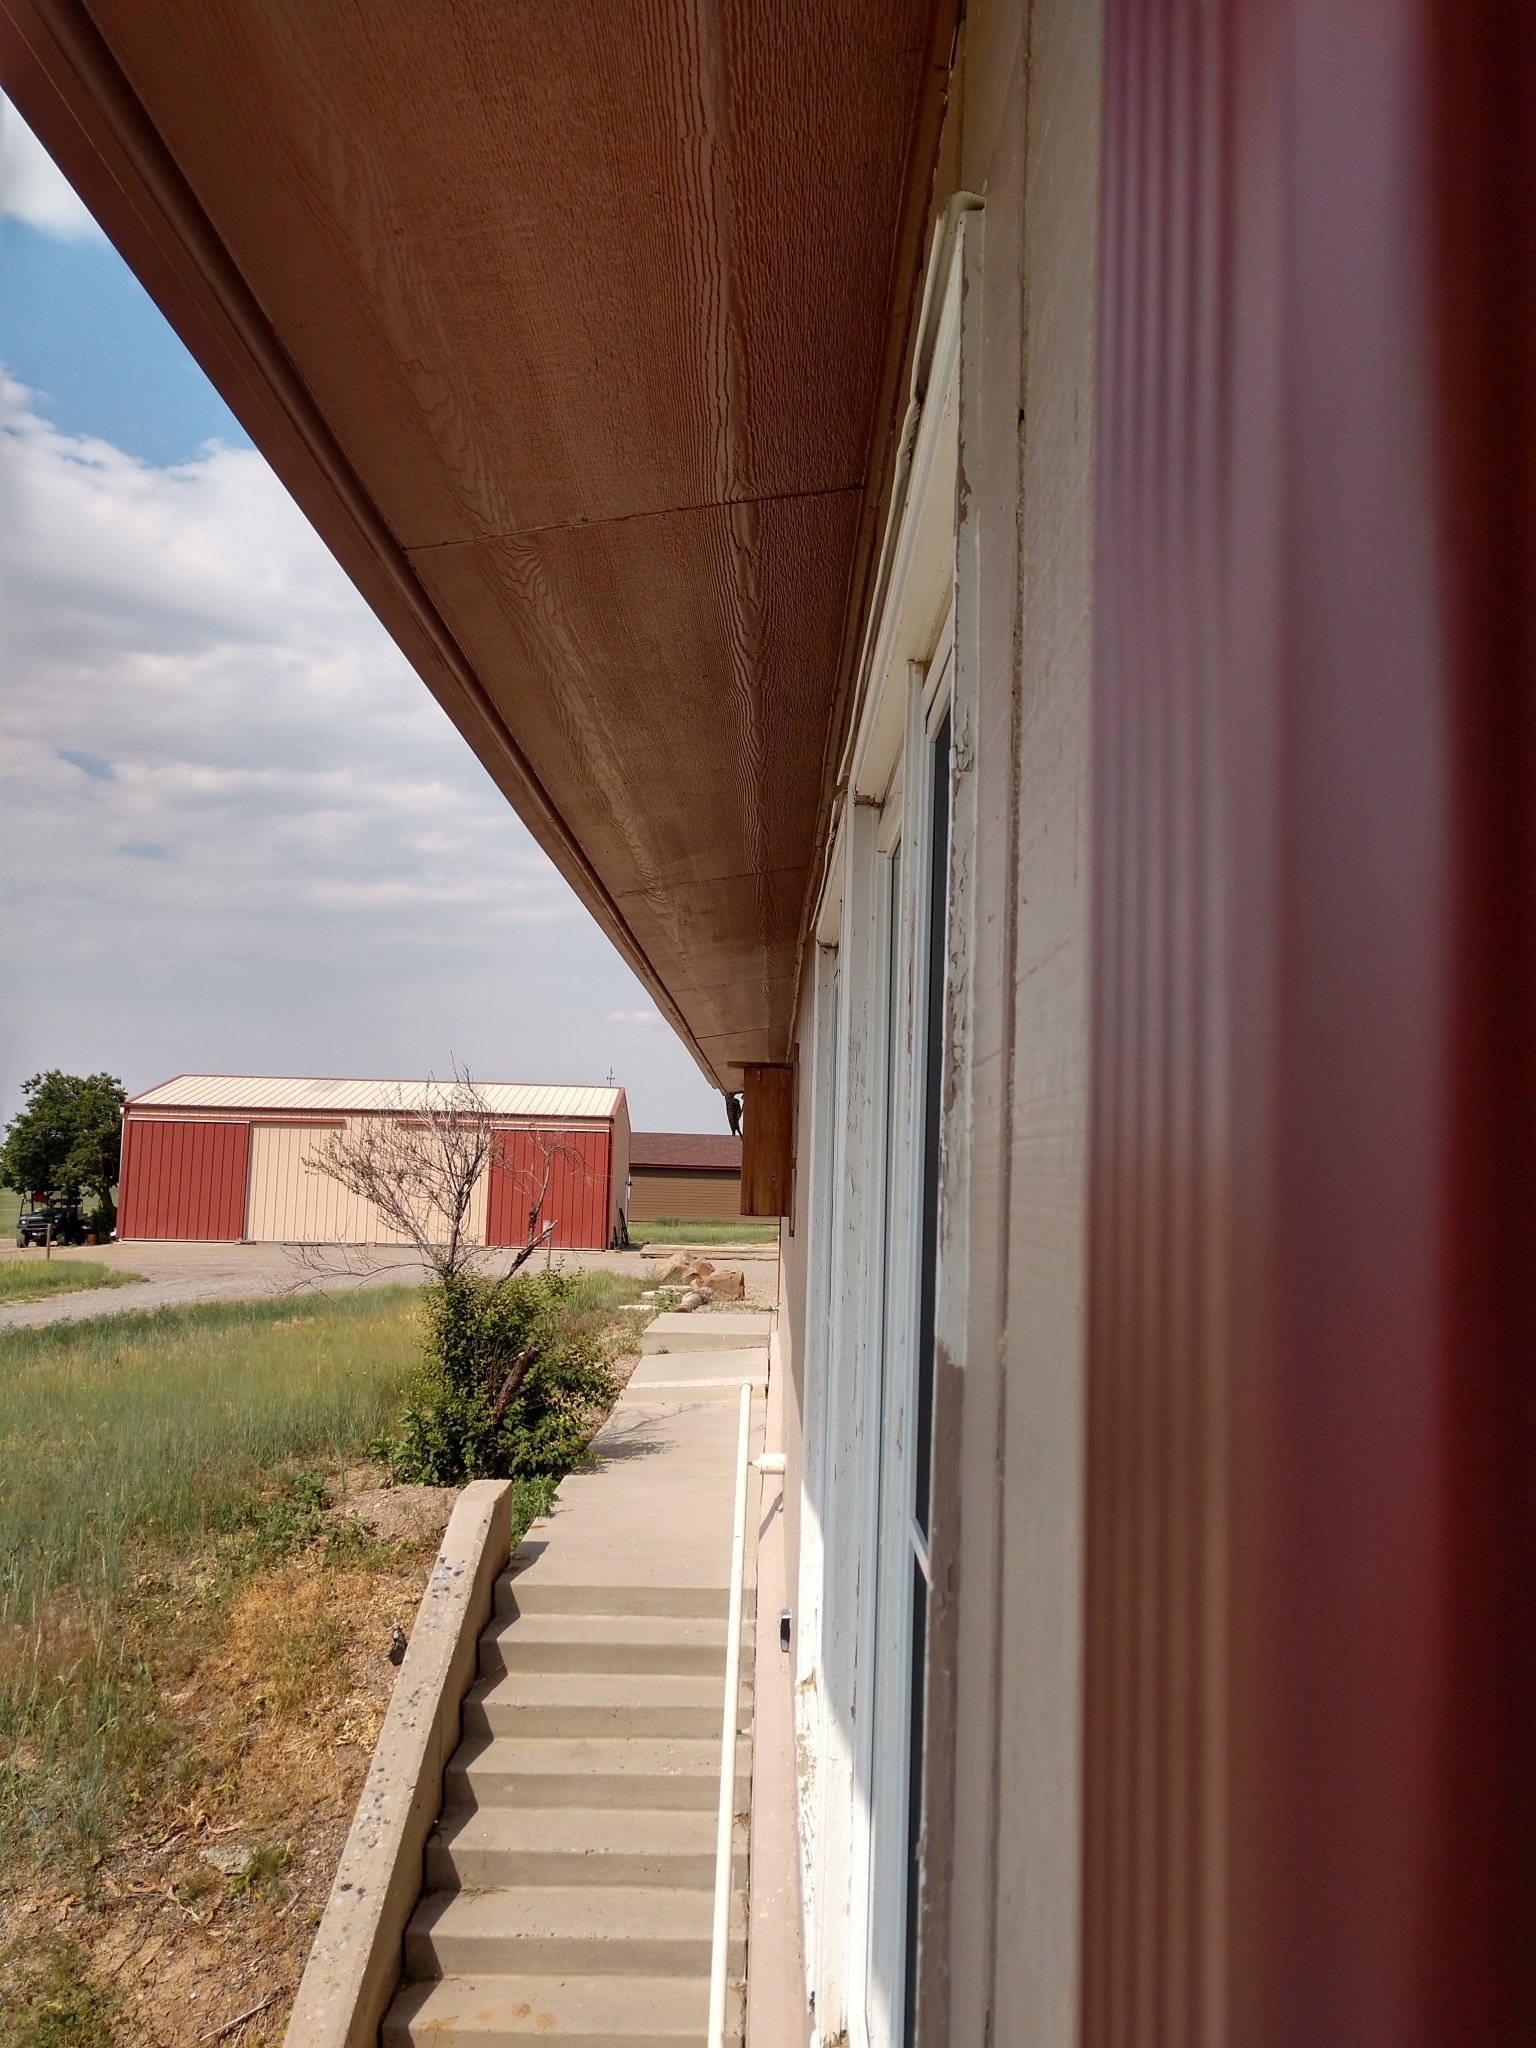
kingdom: Animalia
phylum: Chordata
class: Aves
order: Piciformes
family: Picidae
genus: Colaptes
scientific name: Colaptes auratus
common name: Northern flicker
